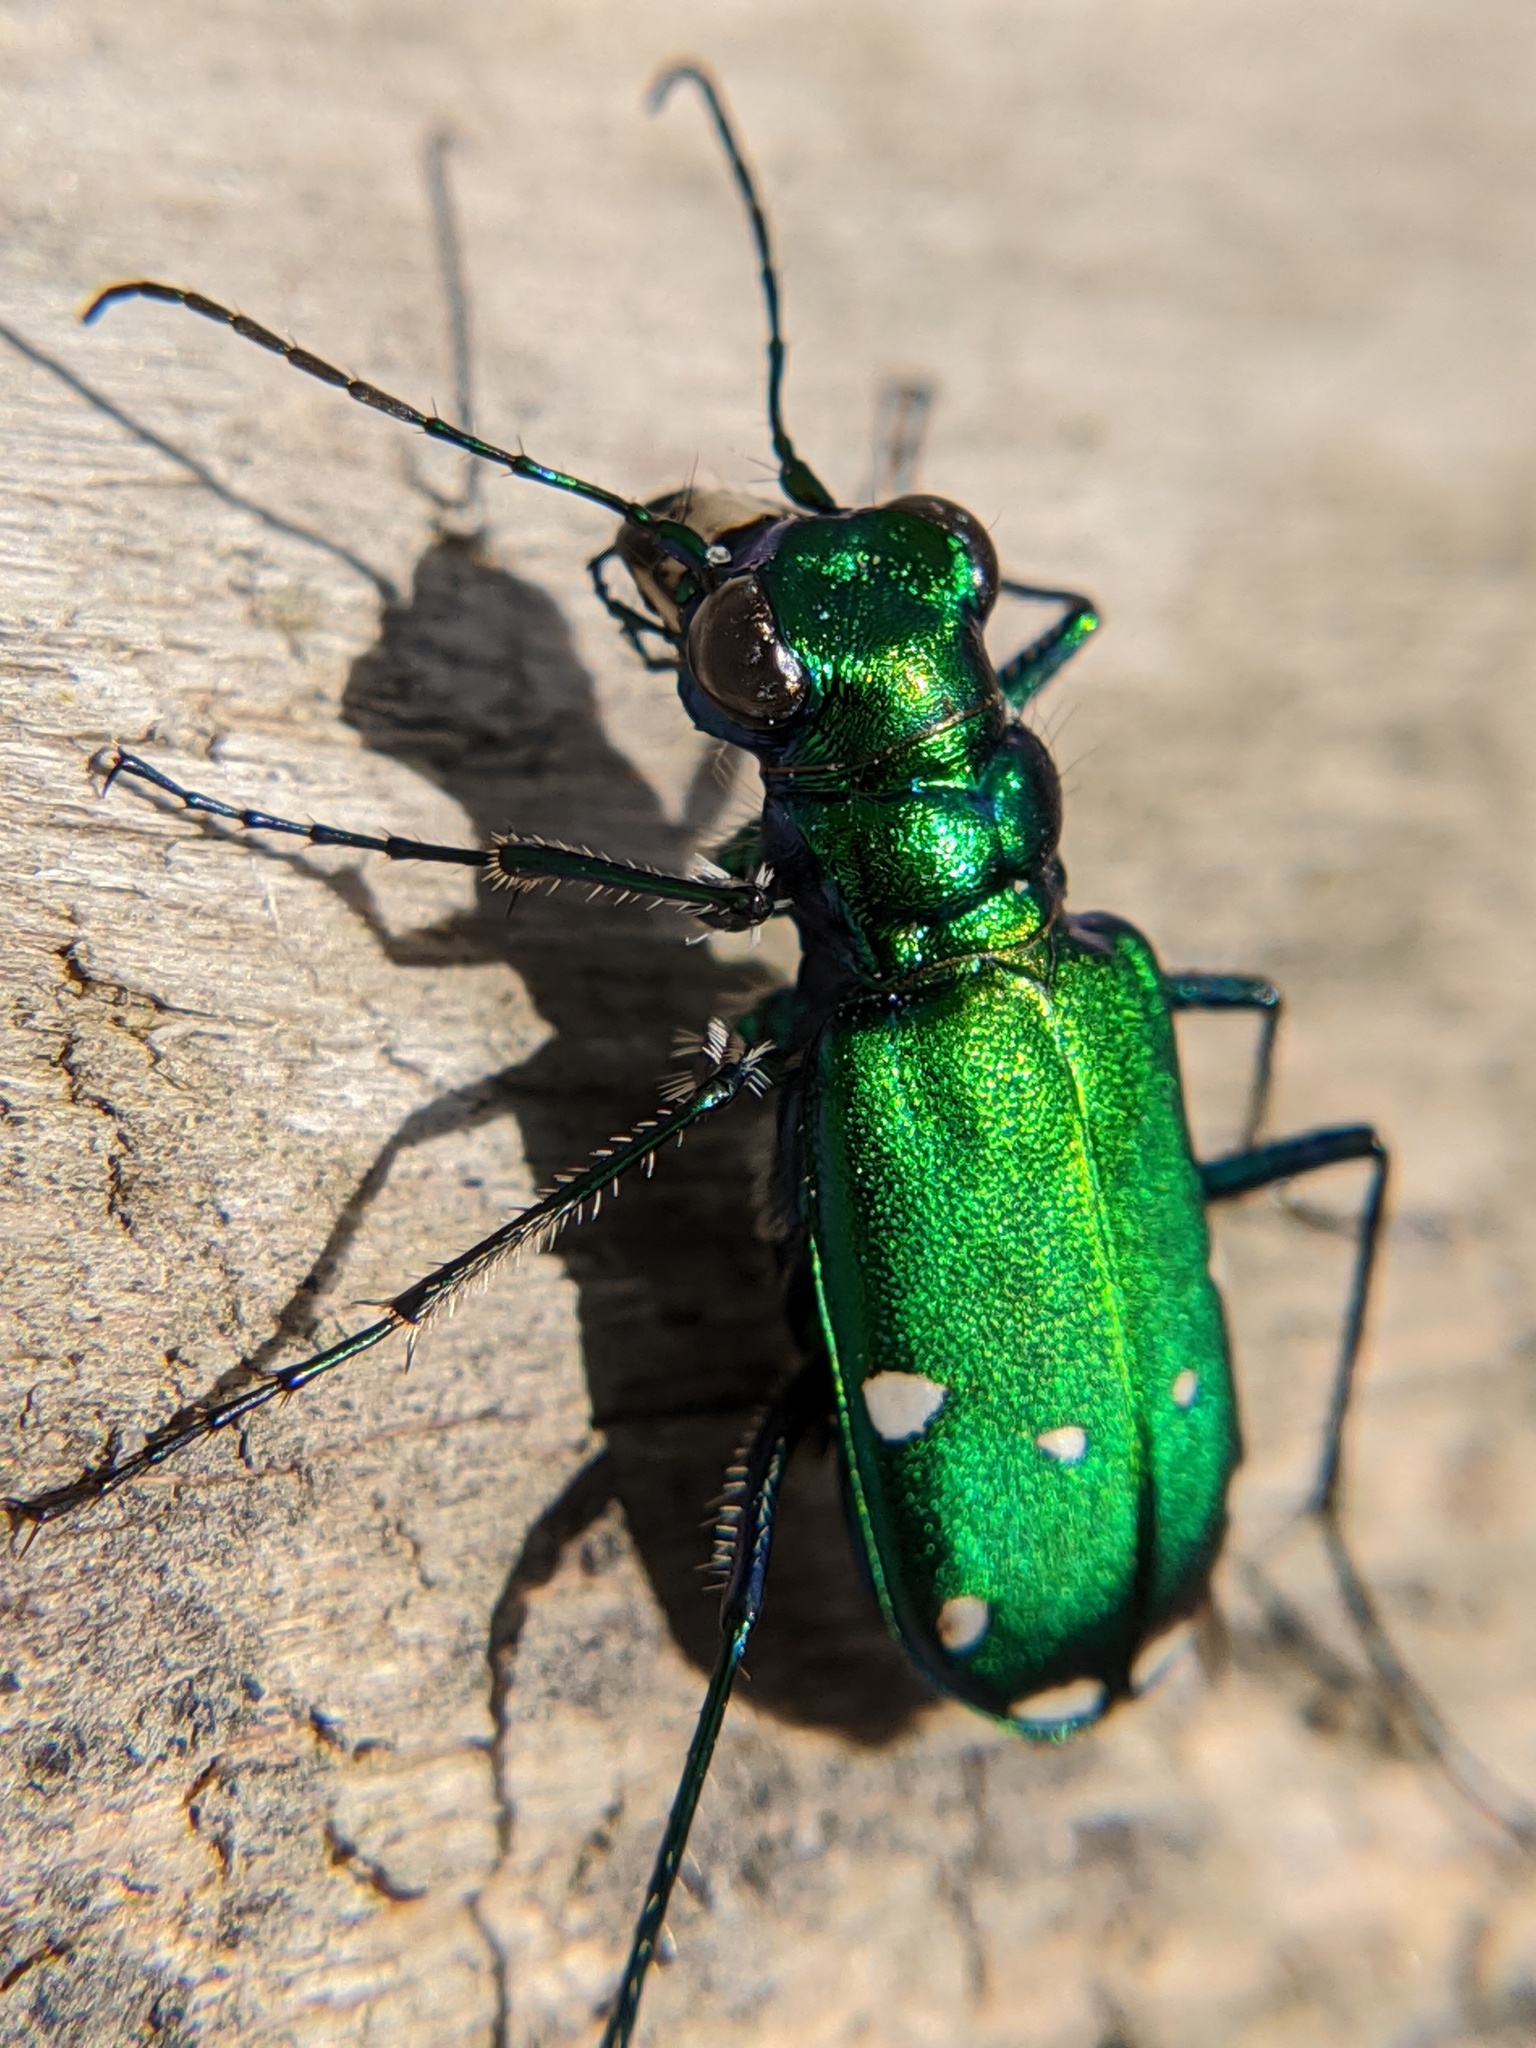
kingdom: Animalia
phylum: Arthropoda
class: Insecta
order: Coleoptera
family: Carabidae
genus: Cicindela
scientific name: Cicindela sexguttata
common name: Six-spotted tiger beetle
